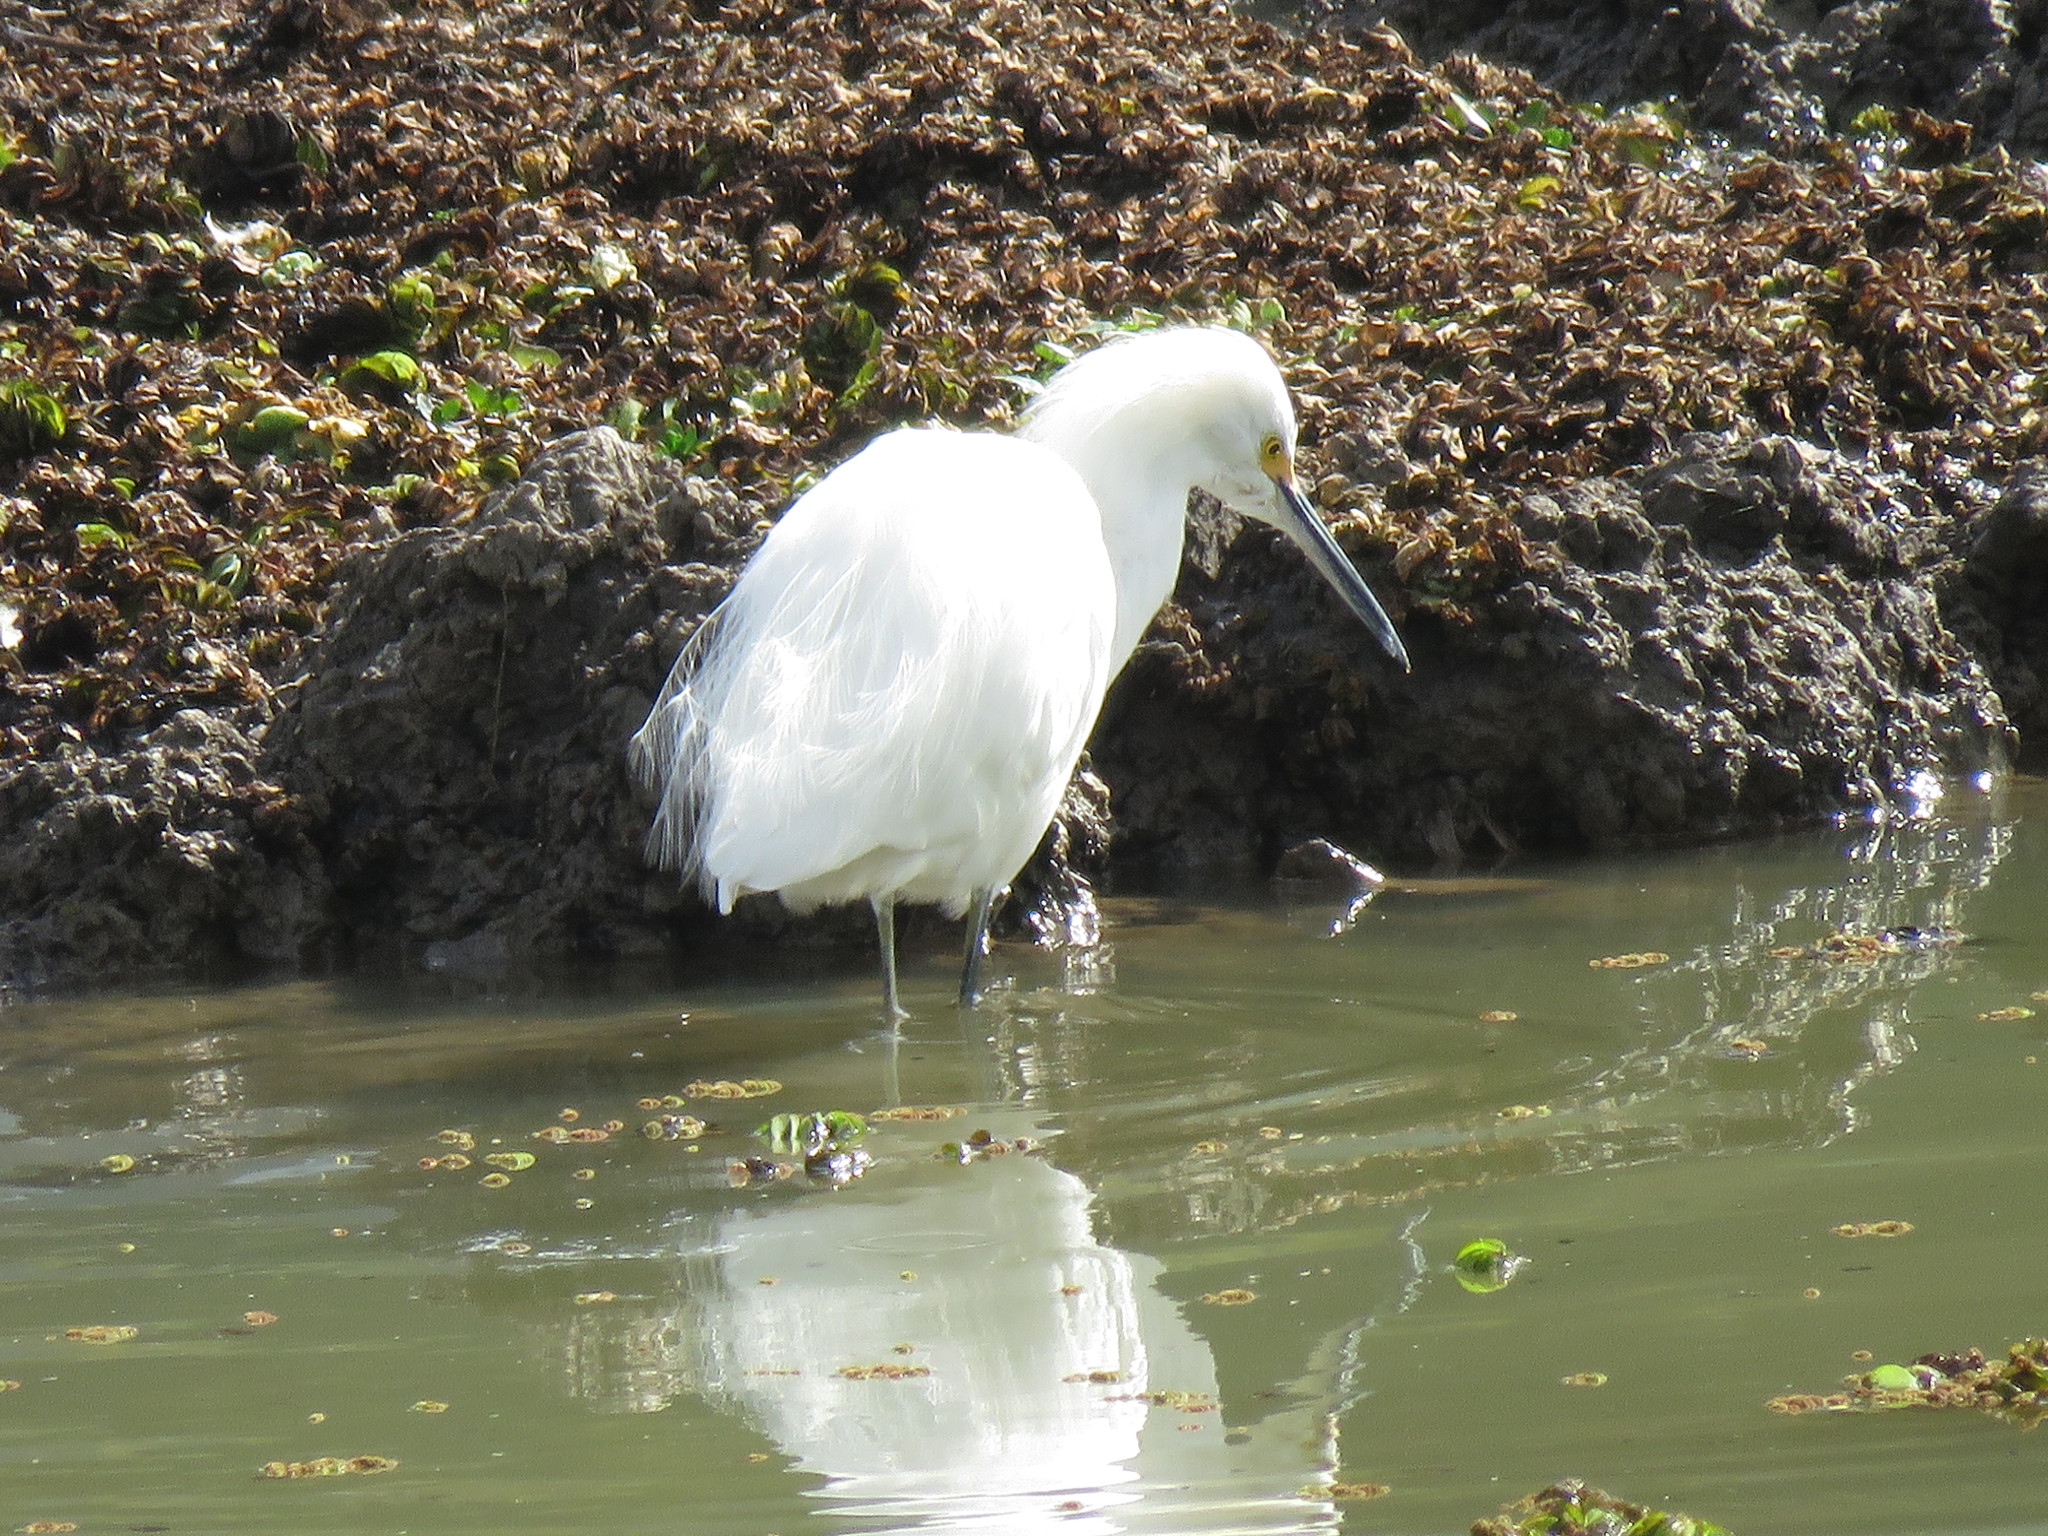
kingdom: Animalia
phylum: Chordata
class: Aves
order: Pelecaniformes
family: Ardeidae
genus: Egretta
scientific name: Egretta thula
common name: Snowy egret
